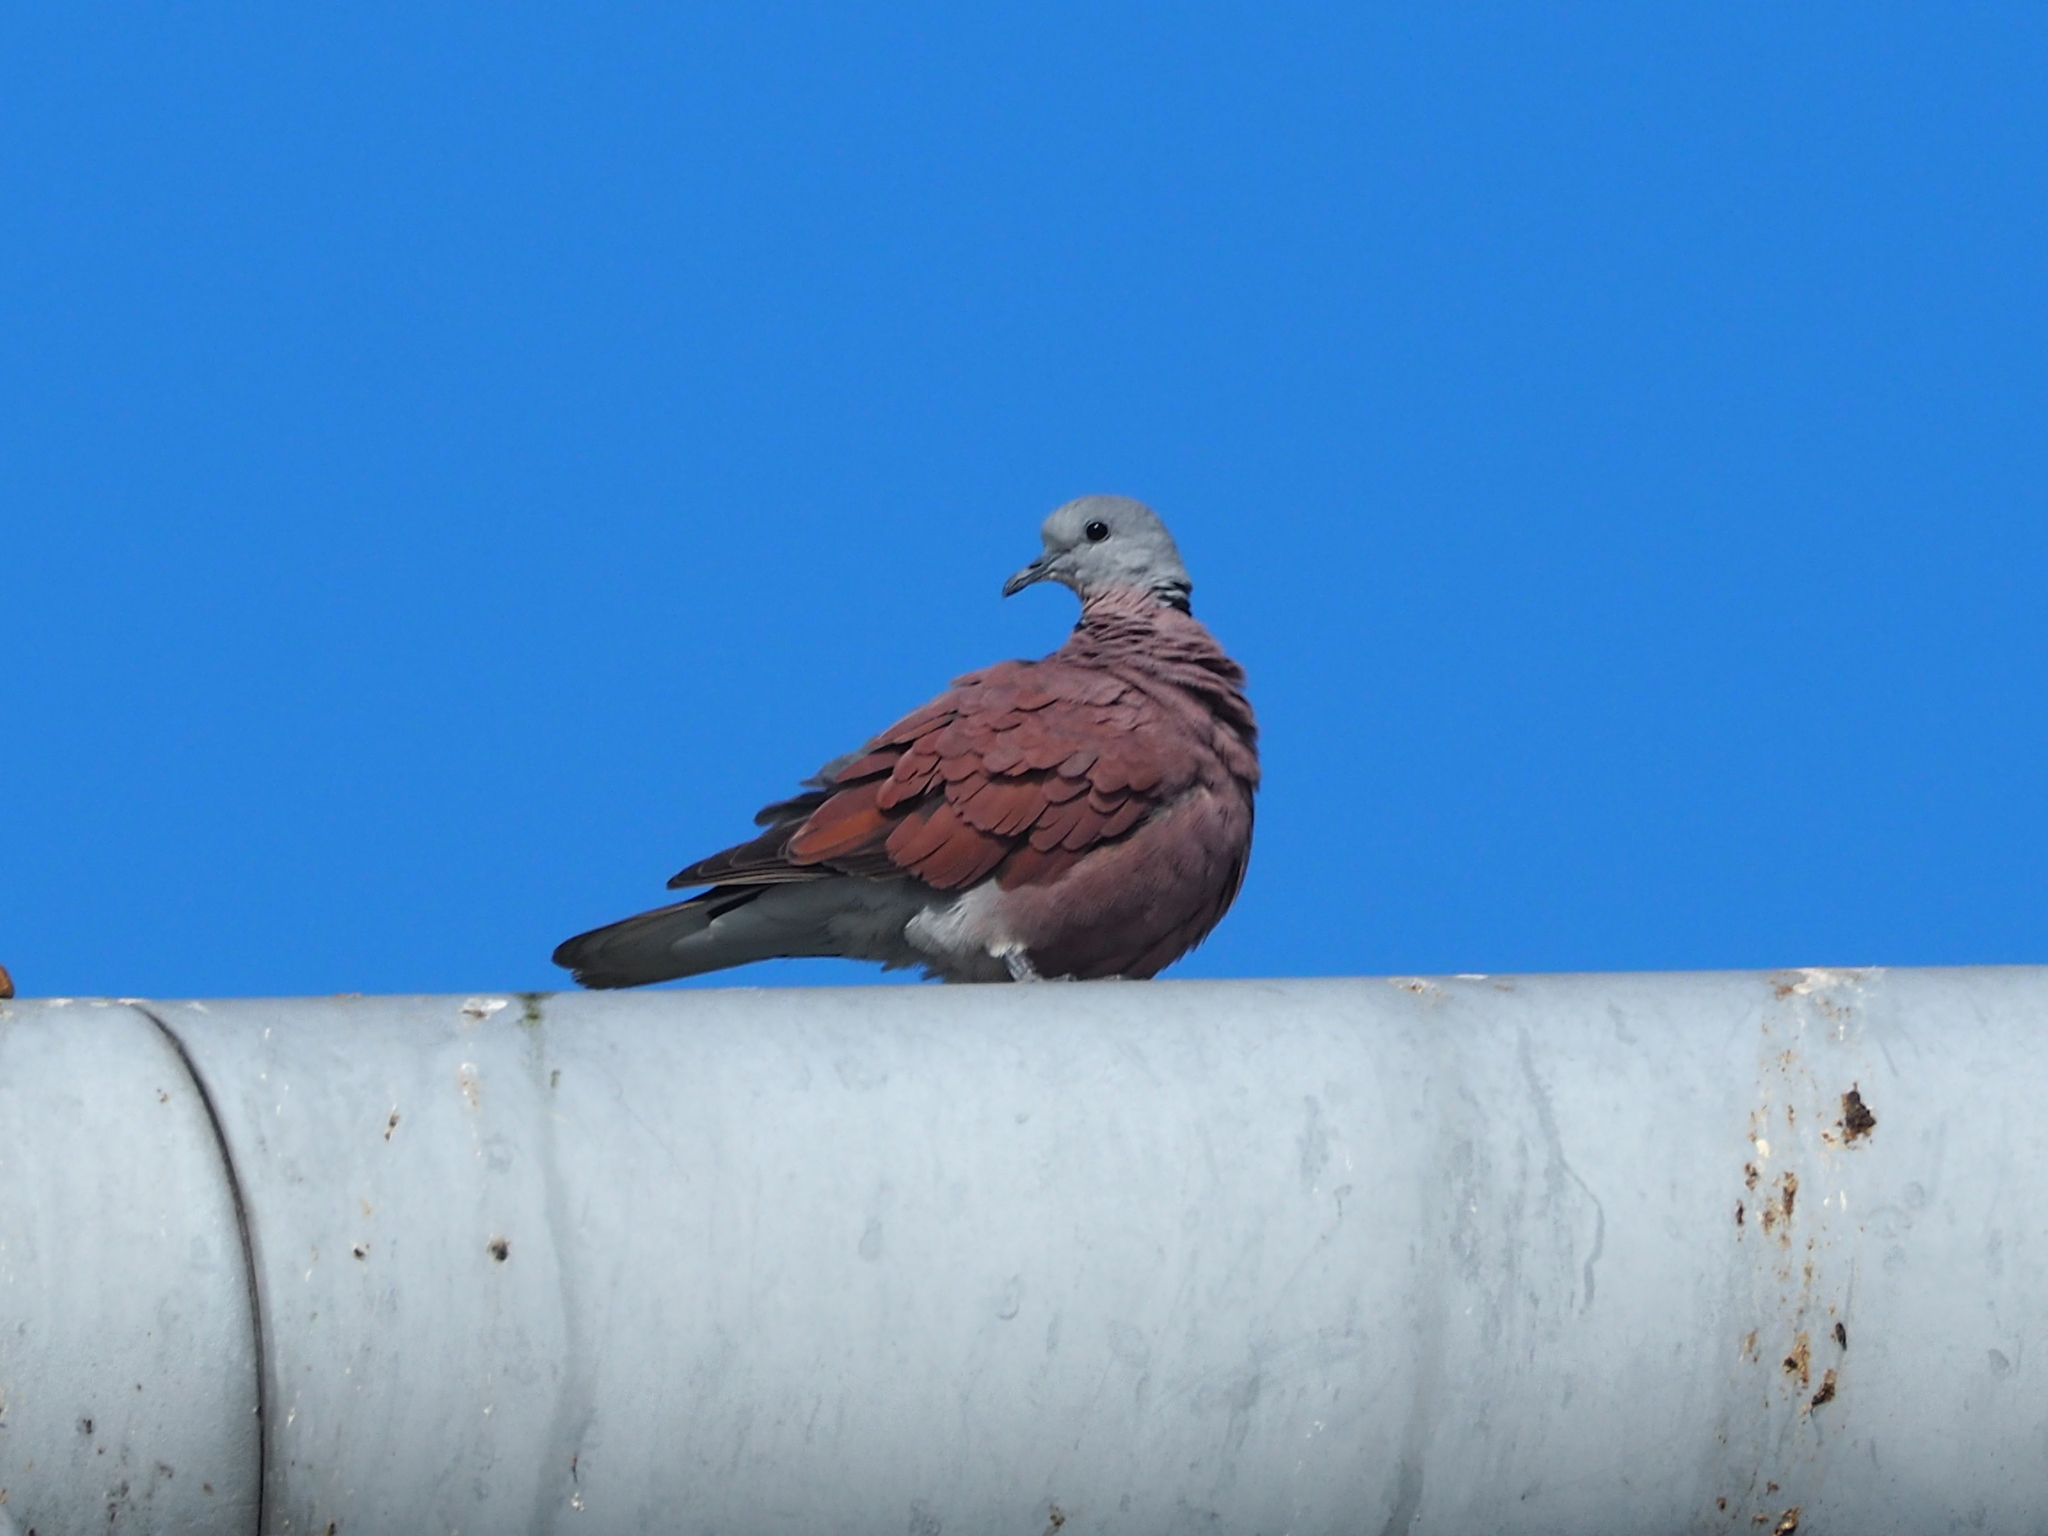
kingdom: Animalia
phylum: Chordata
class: Aves
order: Columbiformes
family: Columbidae
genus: Streptopelia
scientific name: Streptopelia tranquebarica
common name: Red turtle dove
